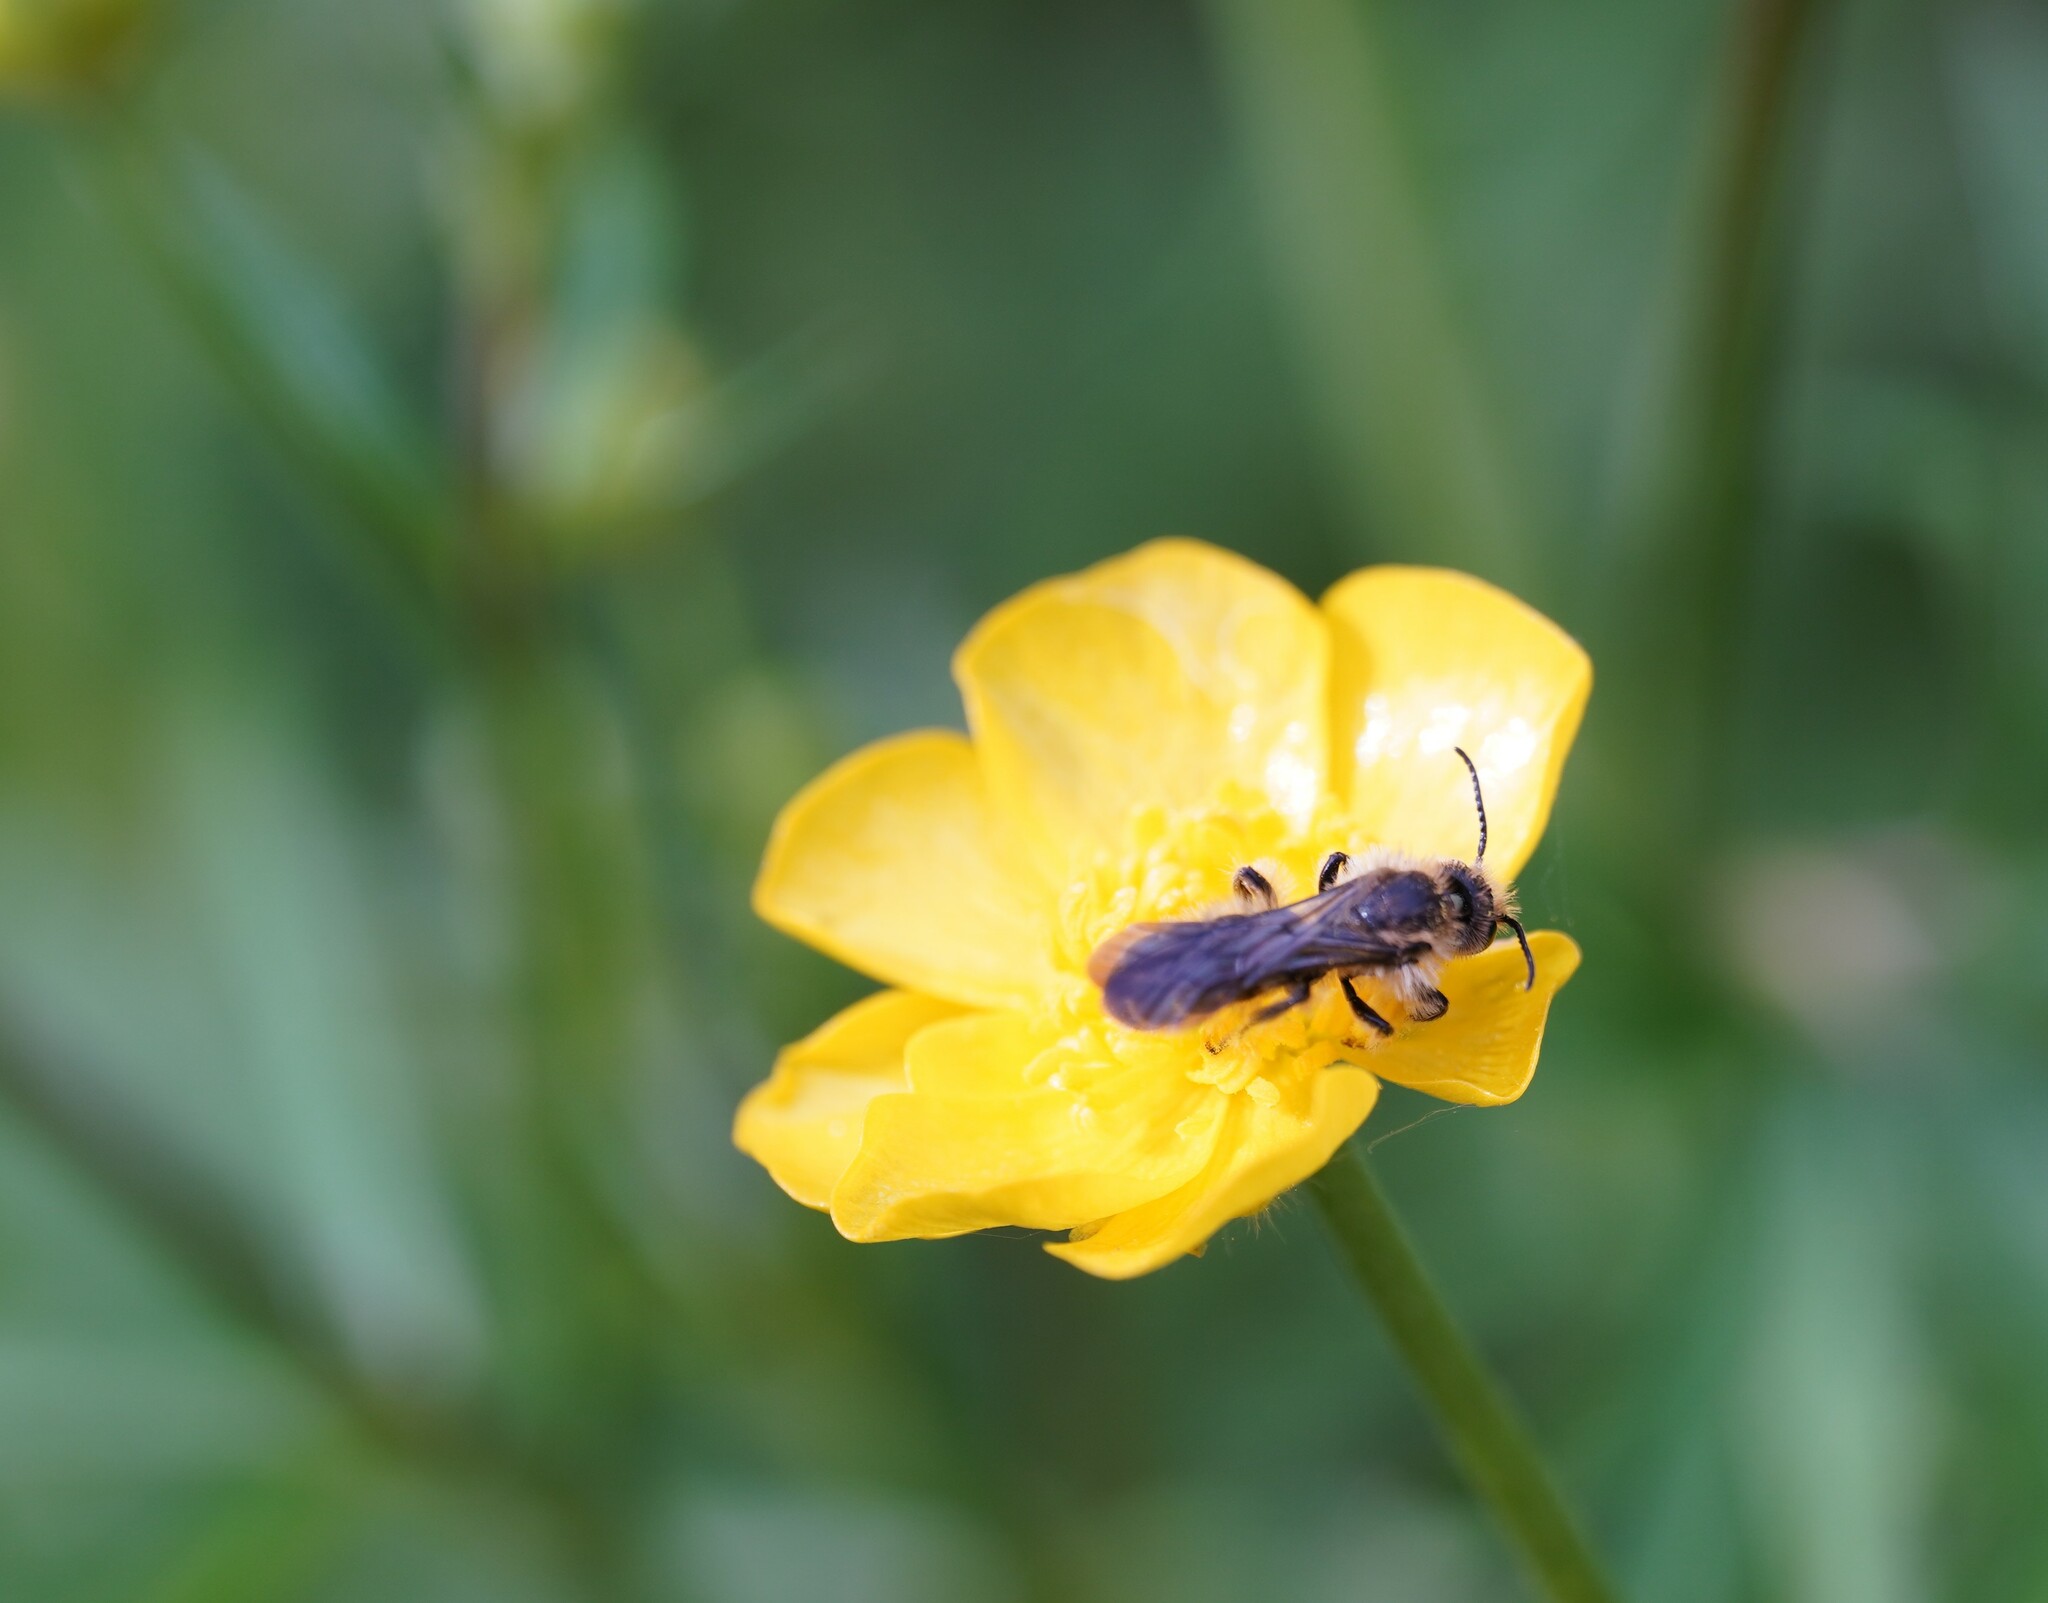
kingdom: Animalia
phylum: Arthropoda
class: Insecta
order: Hymenoptera
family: Megachilidae
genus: Chelostoma
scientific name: Chelostoma florisomne
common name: Sleepy carpenter bee
